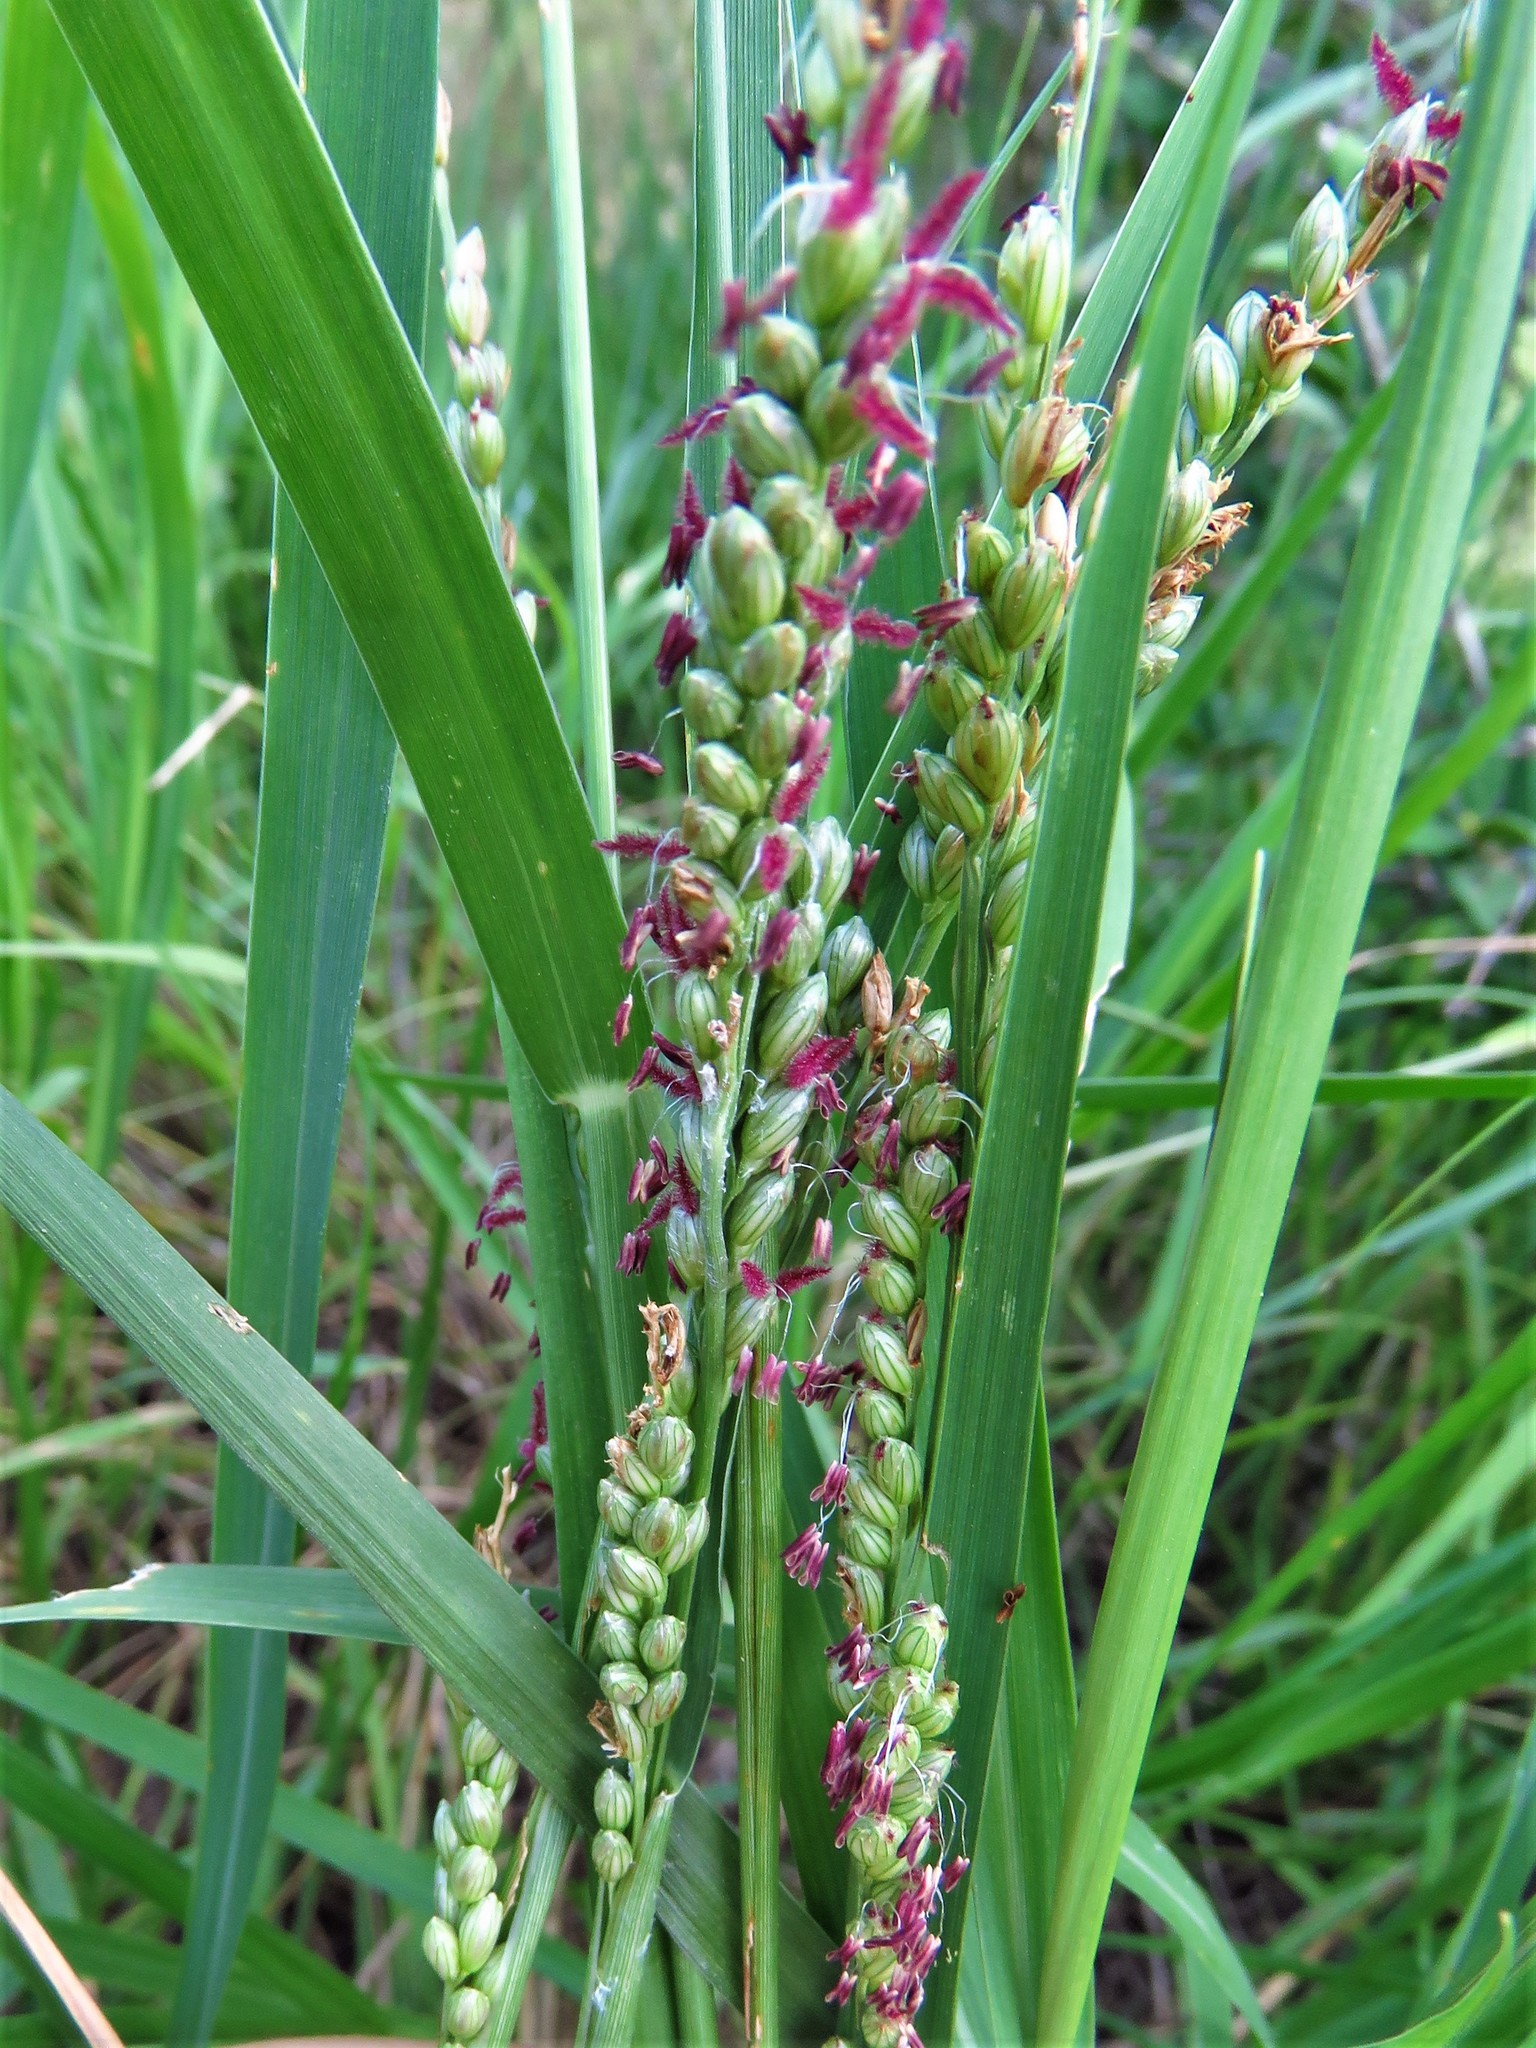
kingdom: Plantae
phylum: Tracheophyta
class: Liliopsida
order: Poales
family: Poaceae
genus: Hopia
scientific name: Hopia obtusa
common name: Vine-mesquite
